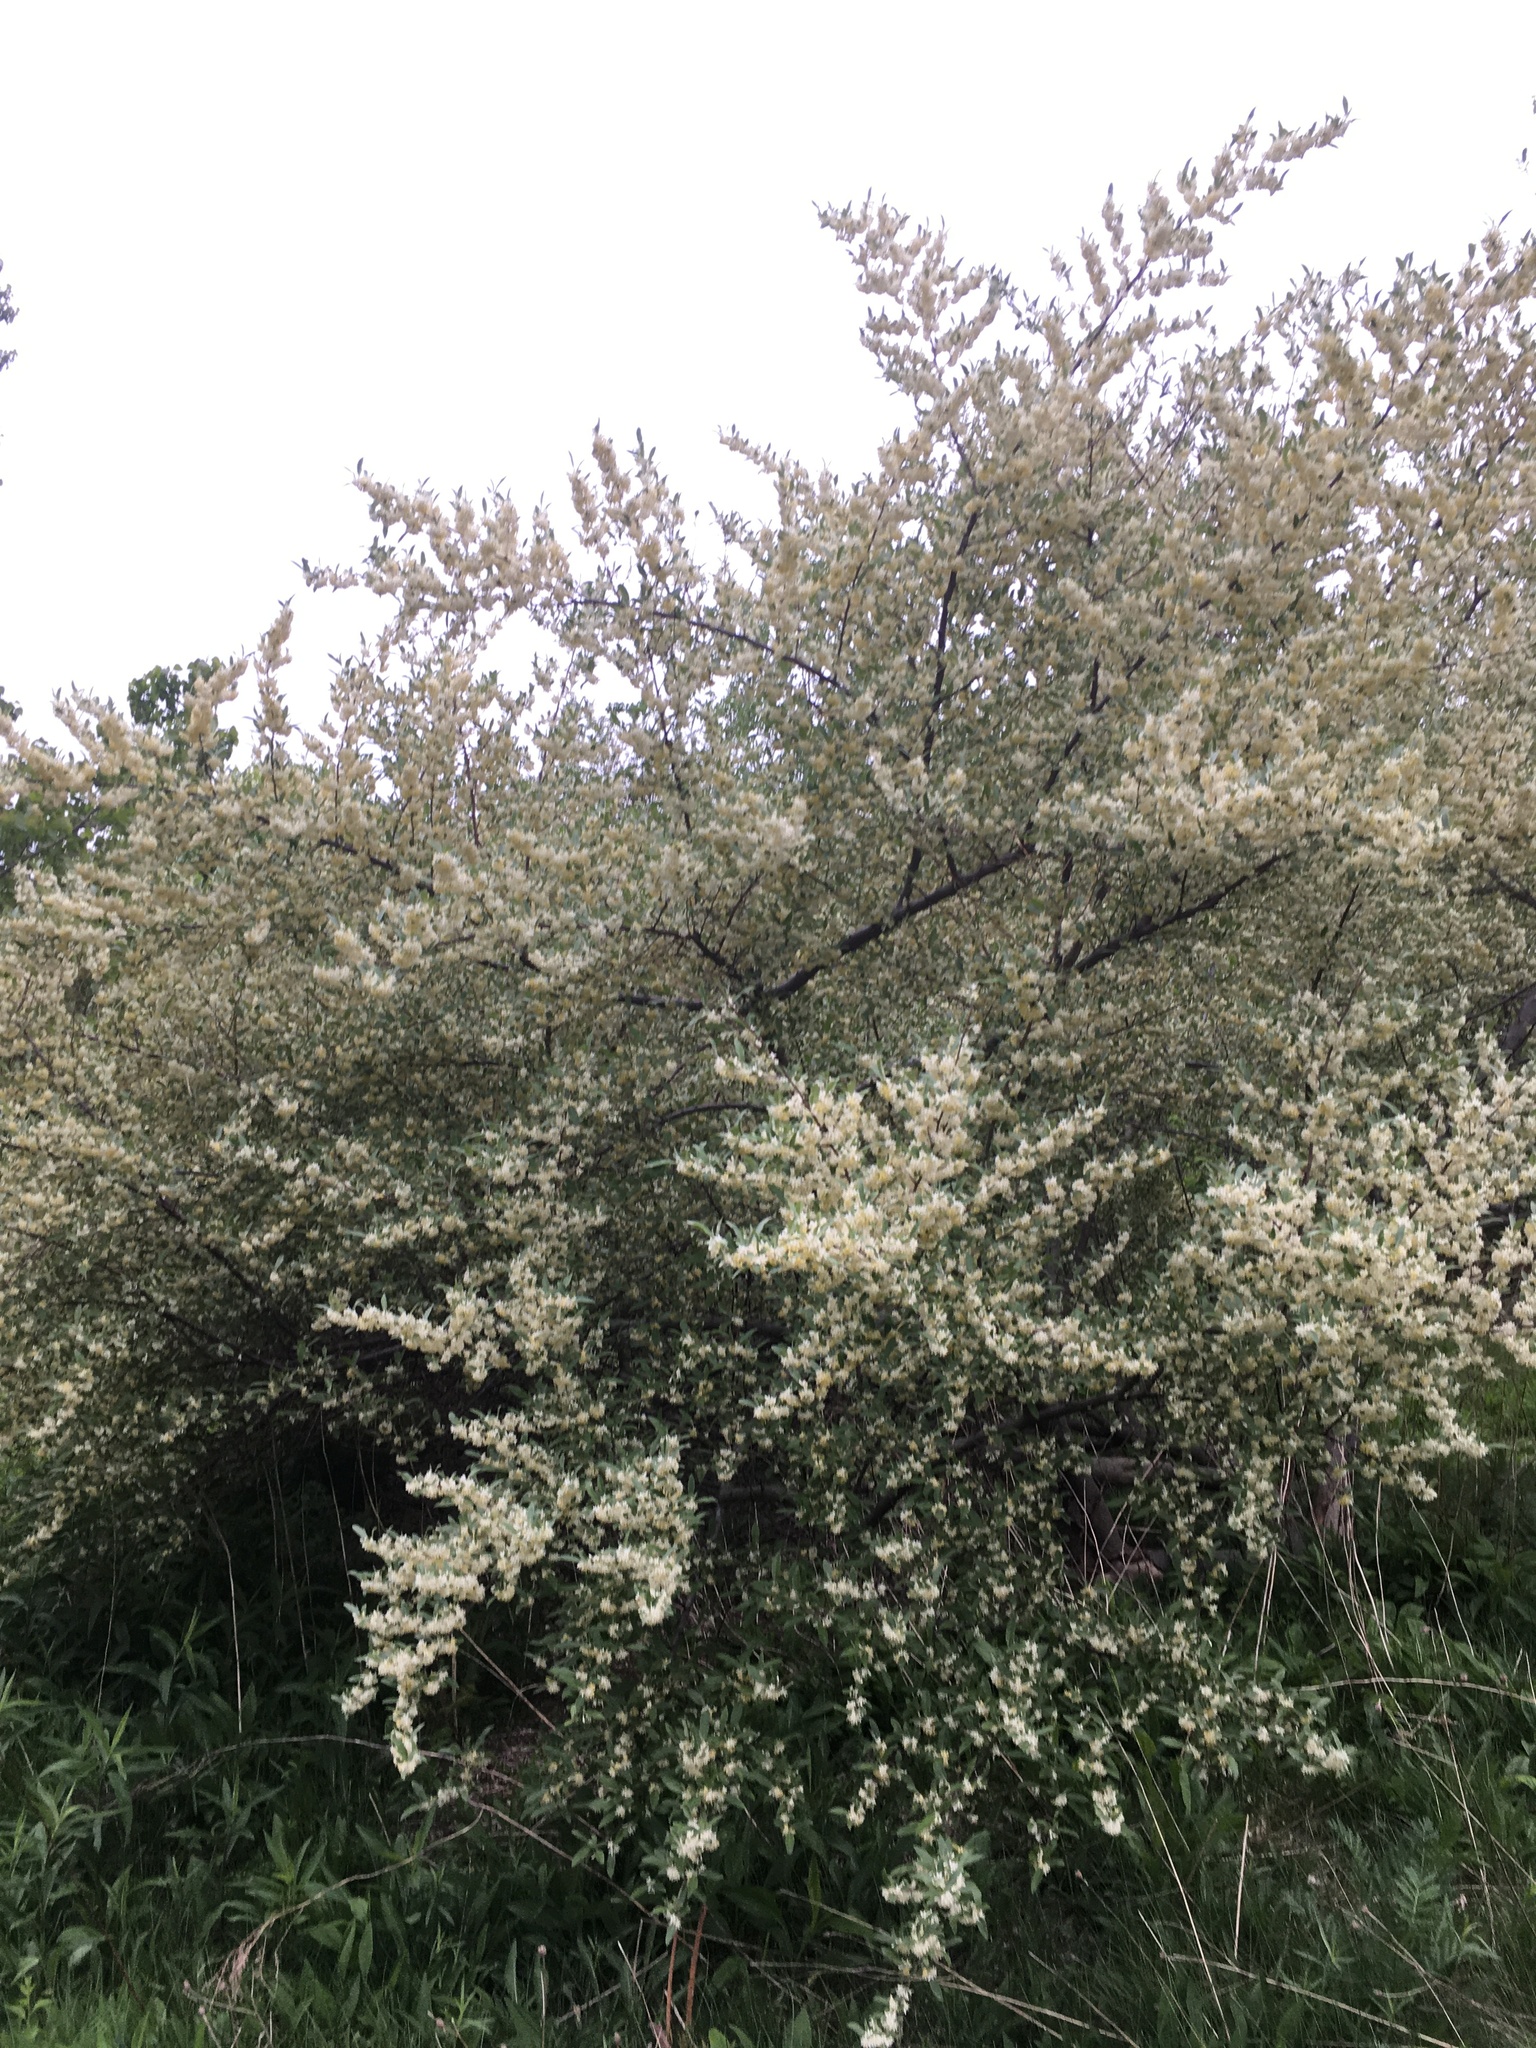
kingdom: Plantae
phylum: Tracheophyta
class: Magnoliopsida
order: Rosales
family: Elaeagnaceae
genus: Elaeagnus
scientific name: Elaeagnus umbellata
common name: Autumn olive
